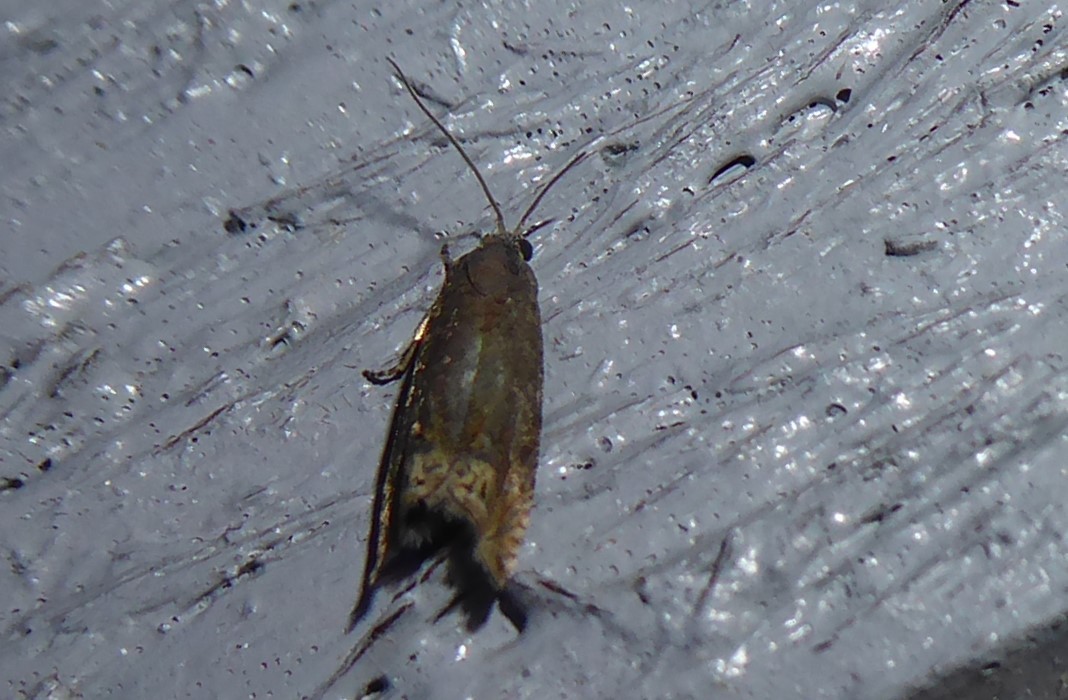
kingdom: Animalia
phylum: Arthropoda
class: Insecta
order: Lepidoptera
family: Tortricidae
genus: Cydia
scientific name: Cydia succedana
